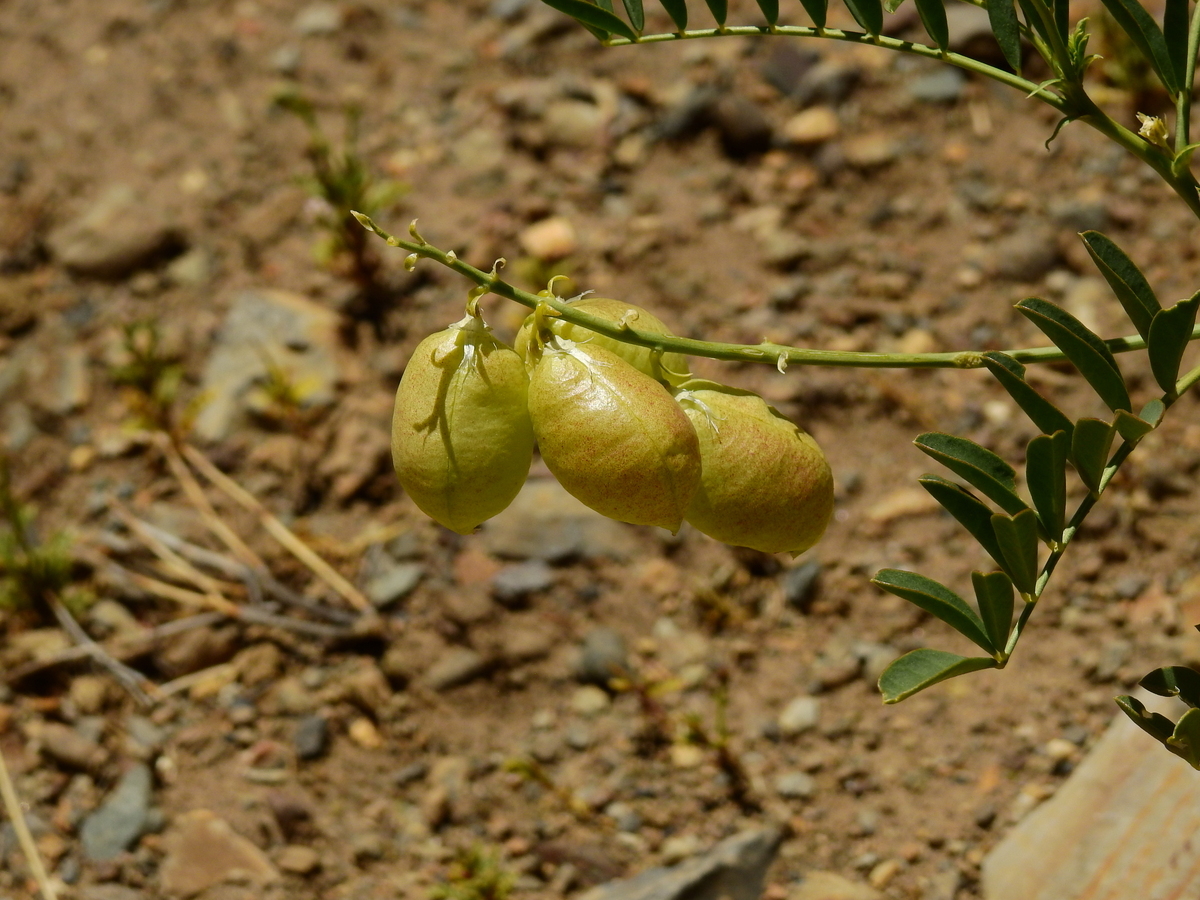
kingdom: Plantae
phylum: Tracheophyta
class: Magnoliopsida
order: Fabales
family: Fabaceae
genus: Astragalus
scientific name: Astragalus pehuenches
